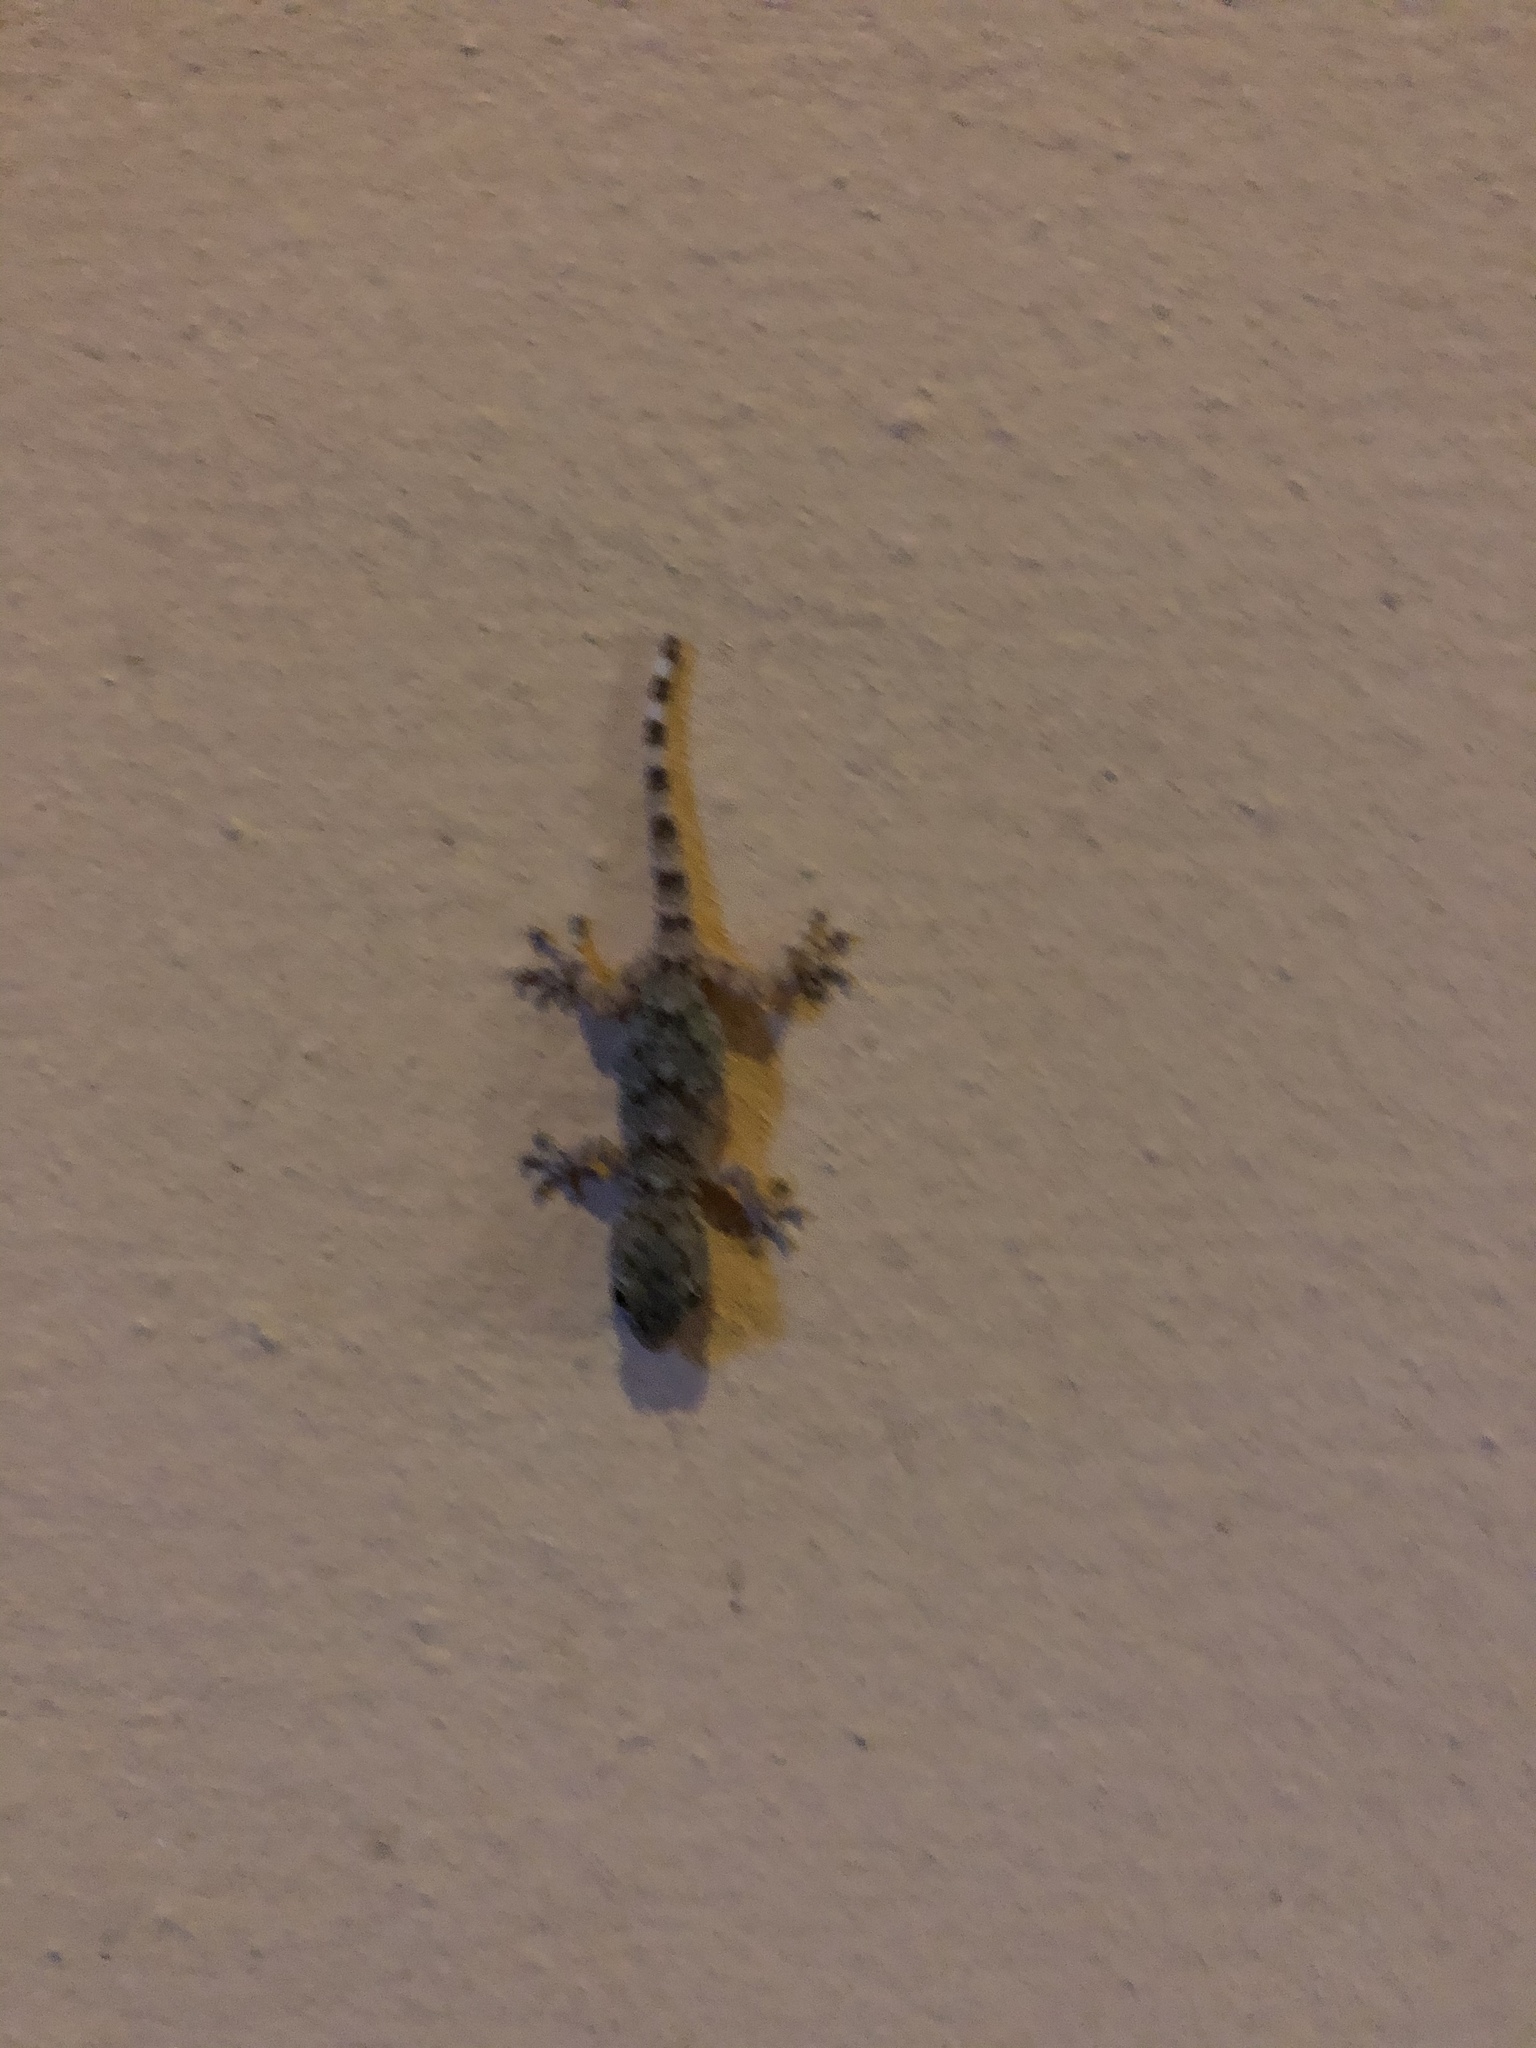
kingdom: Animalia
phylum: Chordata
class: Squamata
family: Phyllodactylidae
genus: Tarentola
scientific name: Tarentola mauritanica
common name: Moorish gecko
